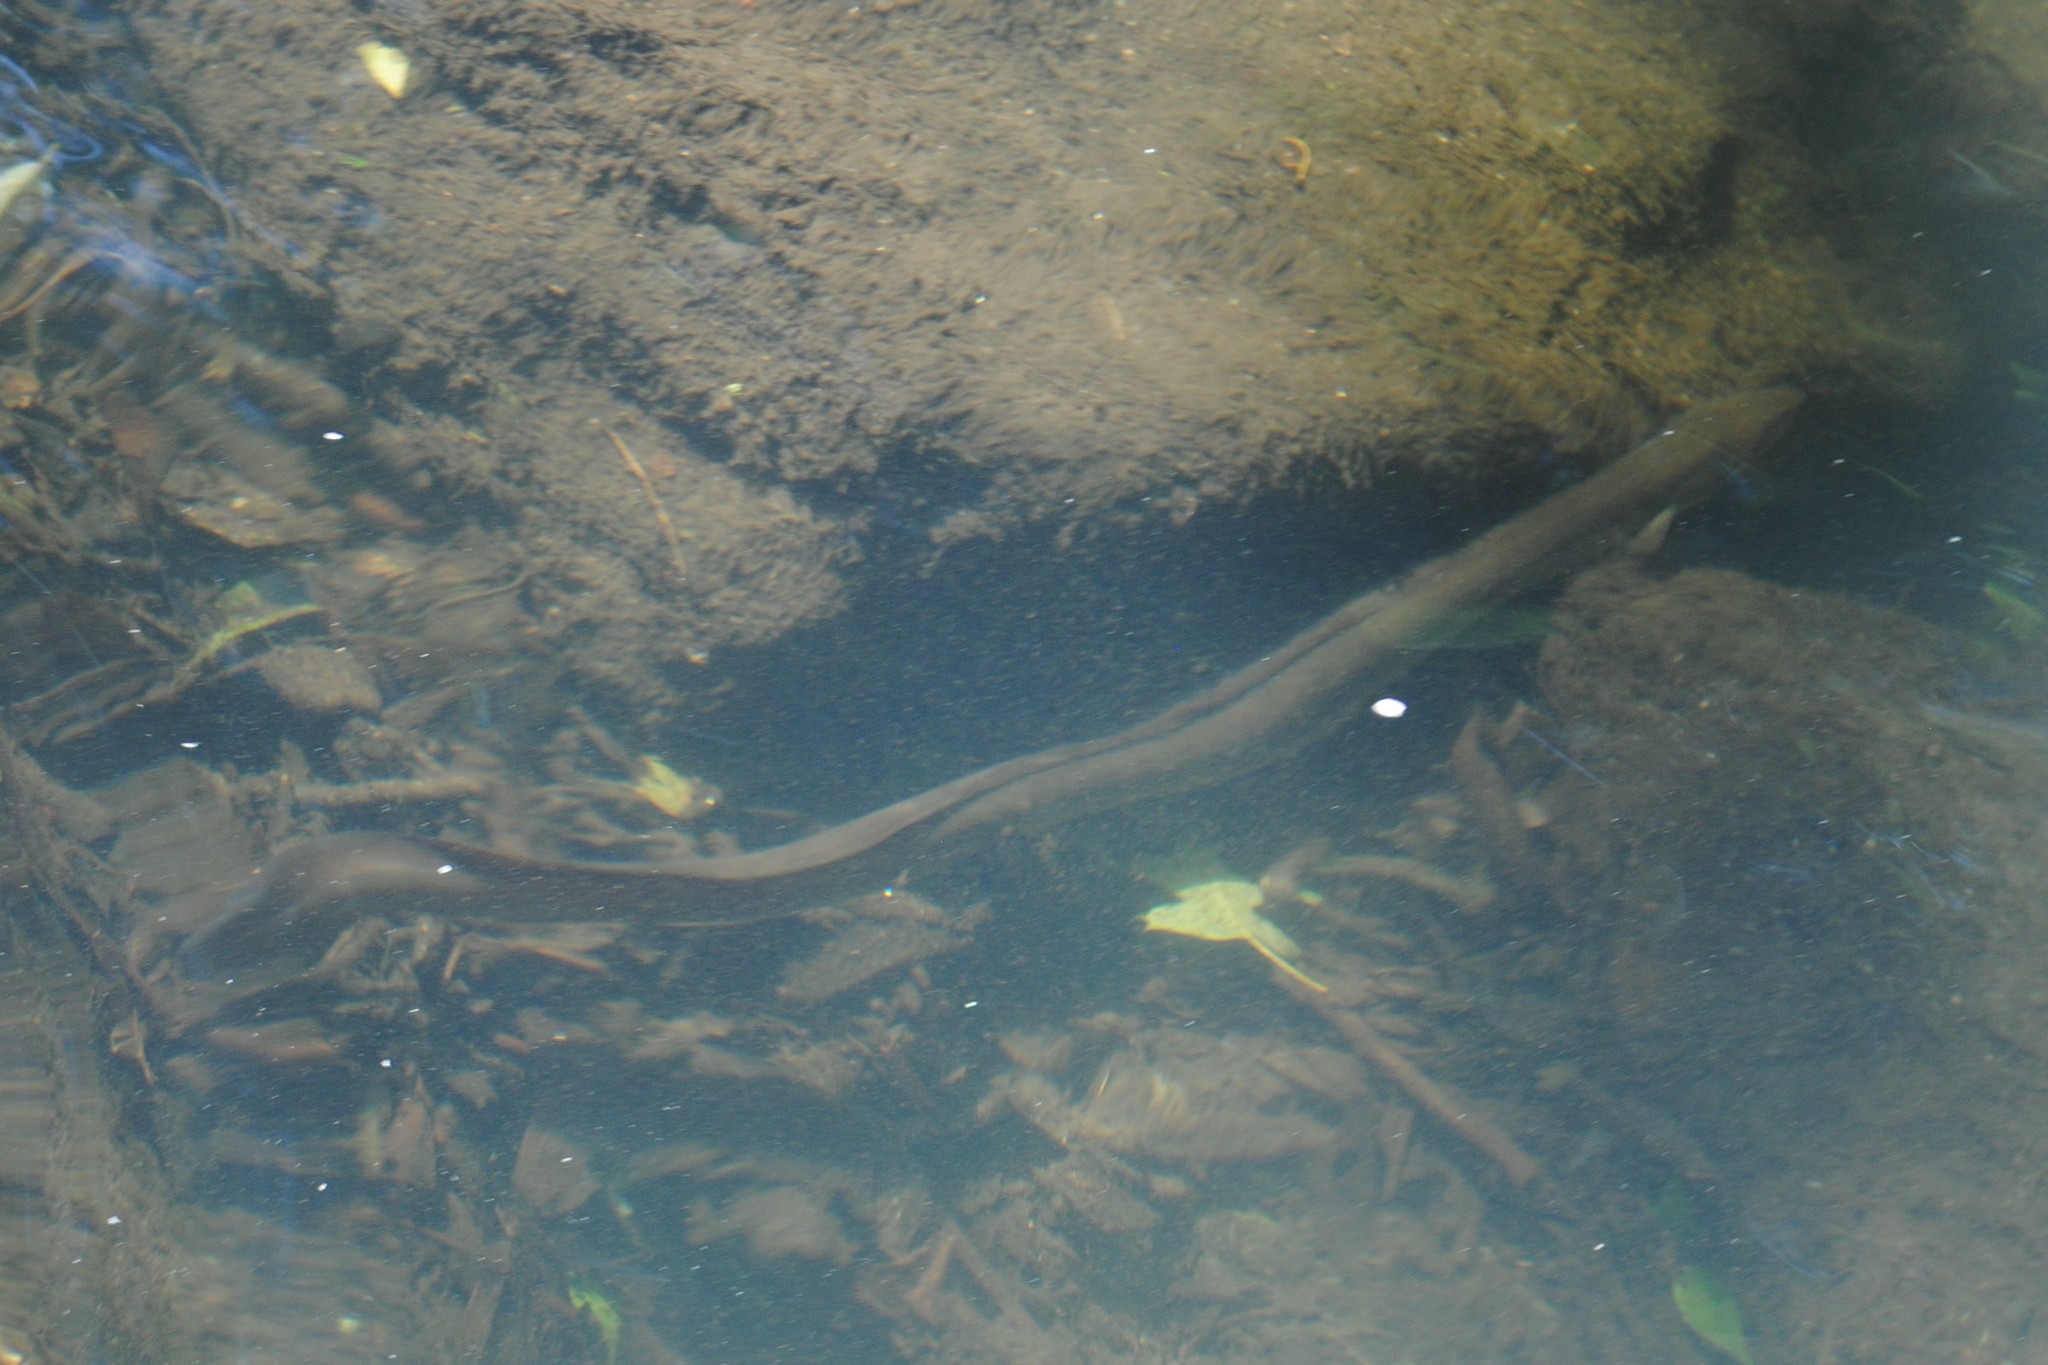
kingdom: Animalia
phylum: Chordata
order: Anguilliformes
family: Anguillidae
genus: Anguilla
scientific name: Anguilla rostrata
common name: American eel
